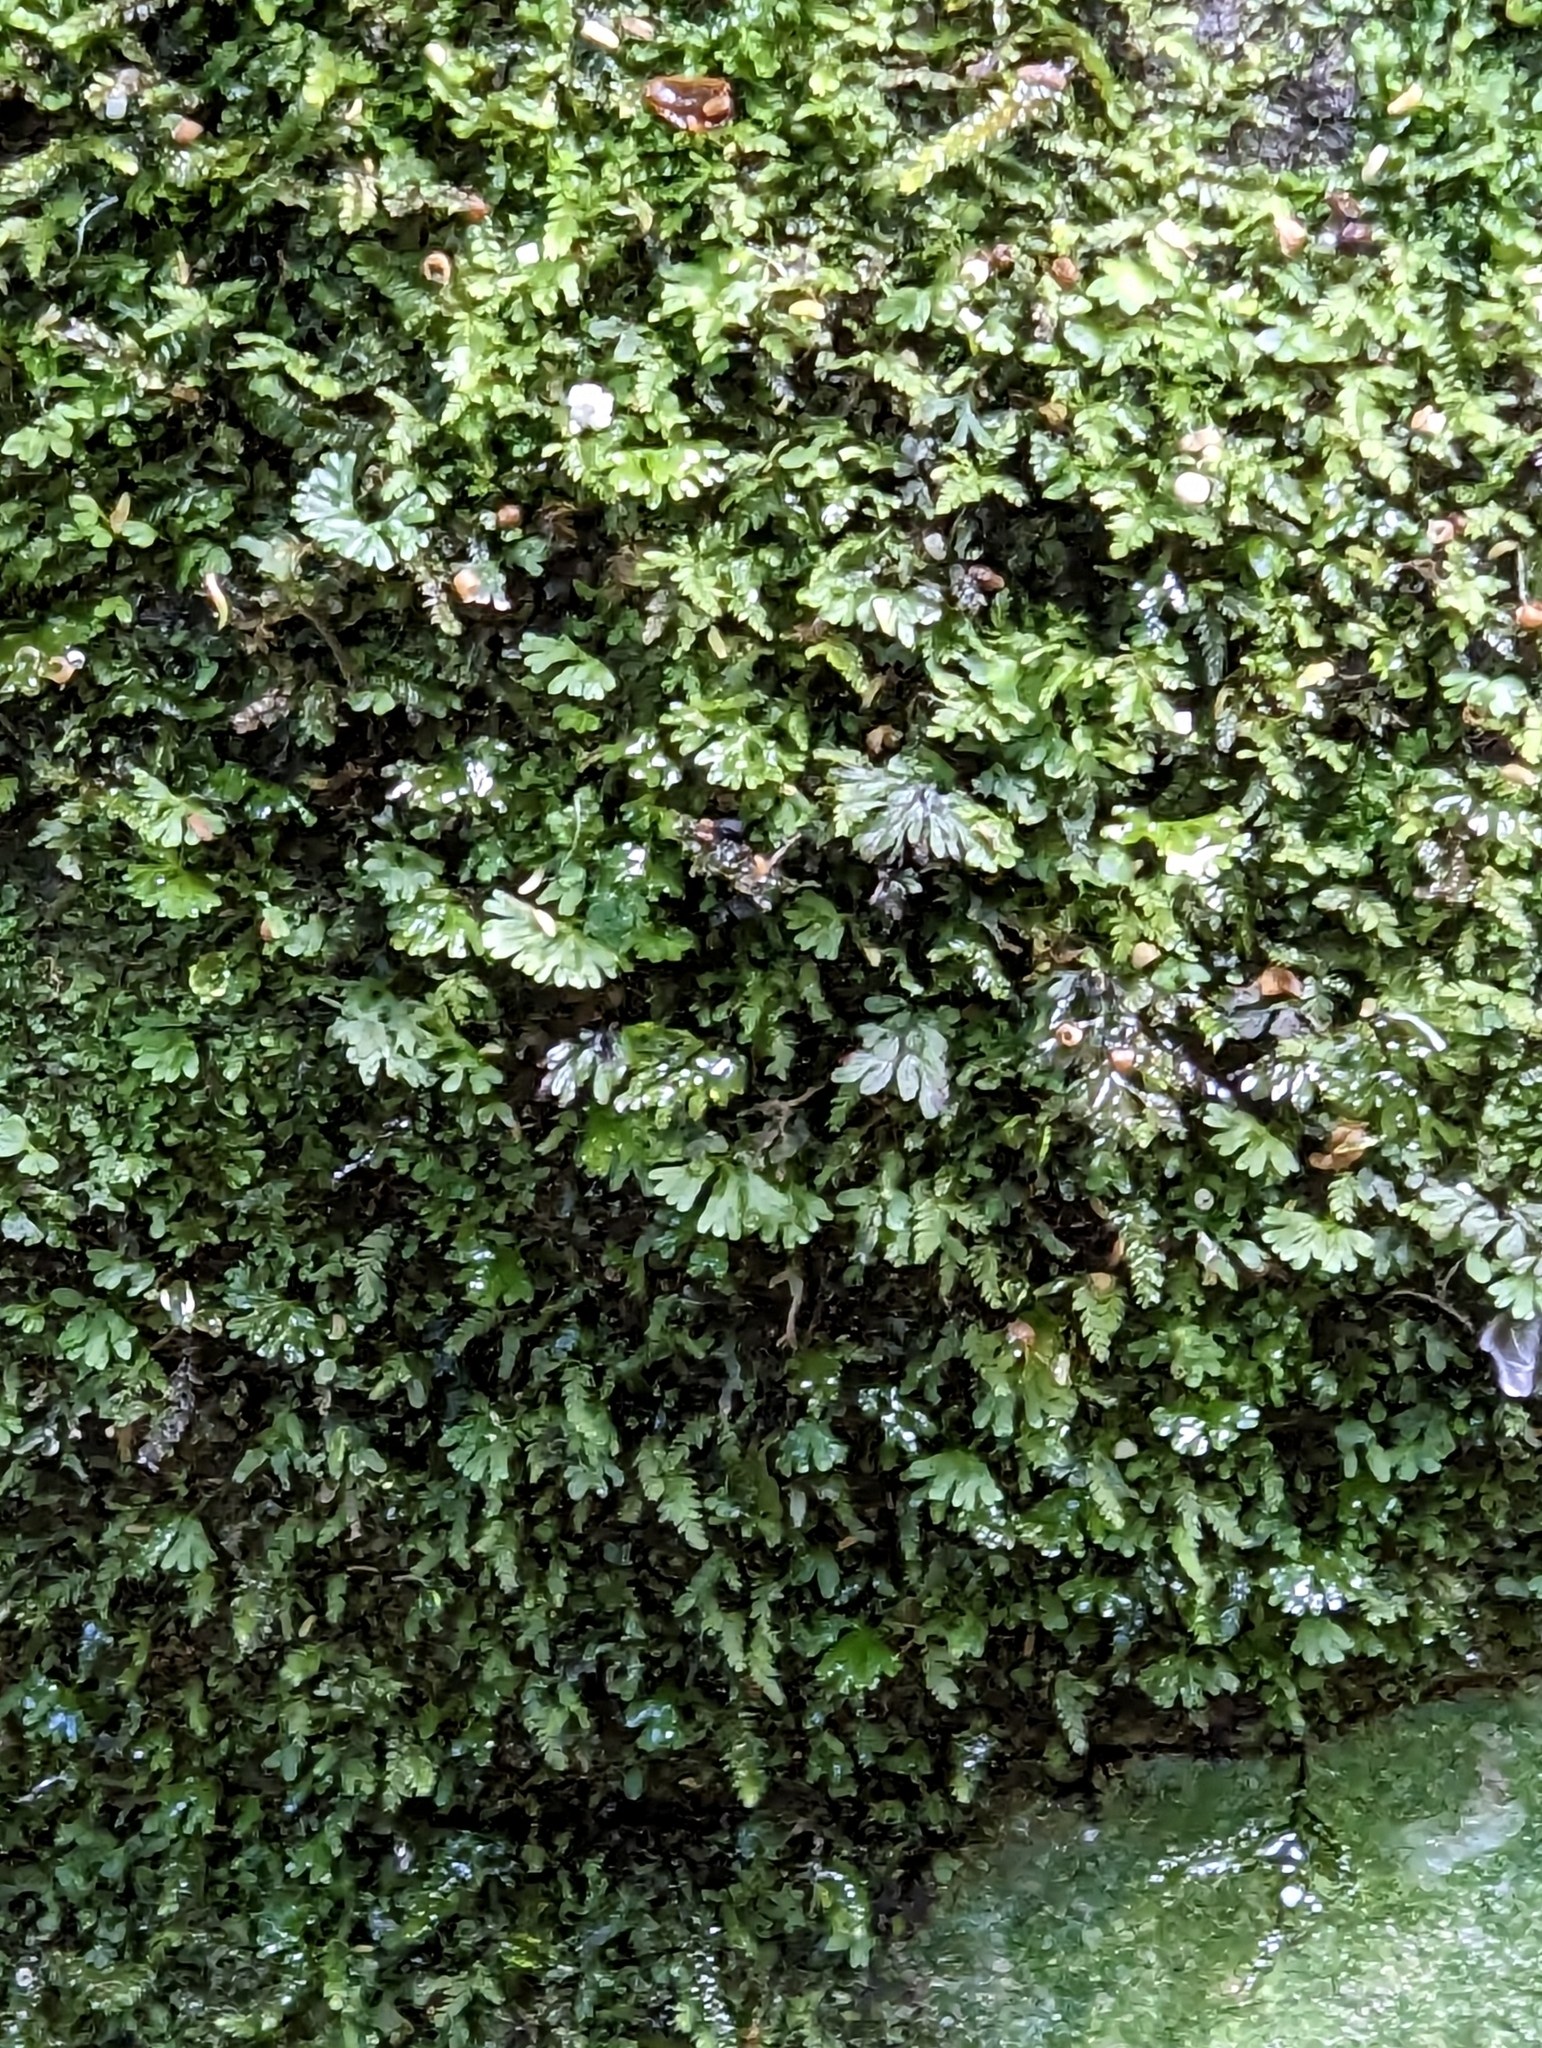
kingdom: Plantae
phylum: Marchantiophyta
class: Jungermanniopsida
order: Pallaviciniales
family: Hymenophytaceae
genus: Hymenophyton
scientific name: Hymenophyton flabellatum
